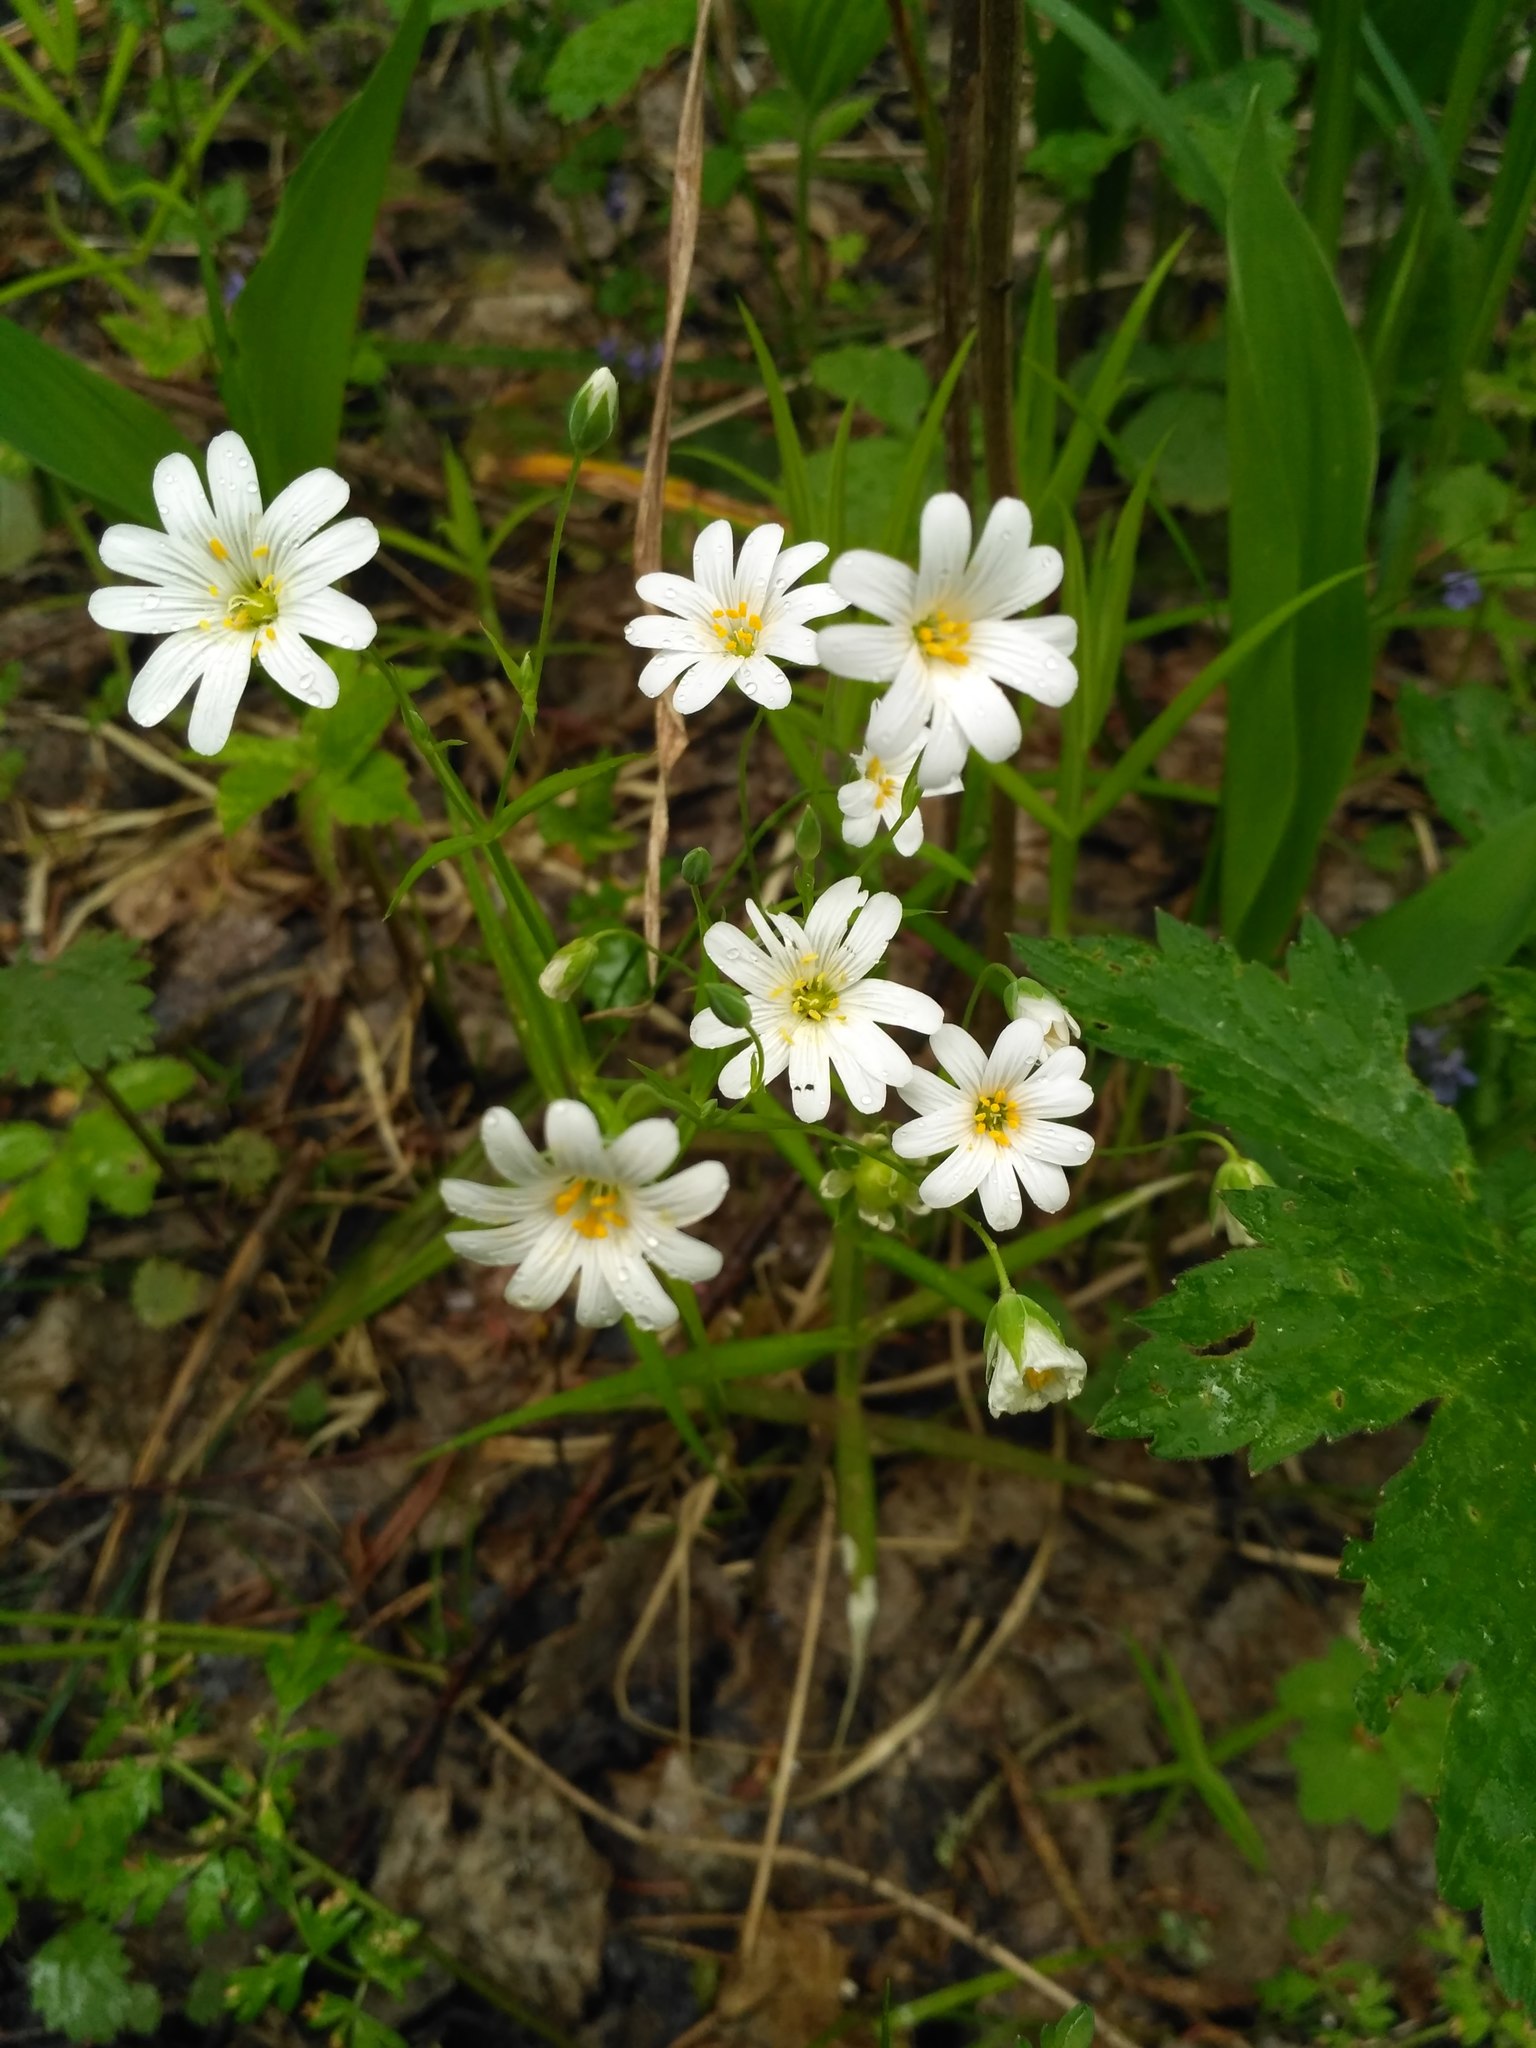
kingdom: Plantae
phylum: Tracheophyta
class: Magnoliopsida
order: Caryophyllales
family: Caryophyllaceae
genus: Rabelera
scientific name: Rabelera holostea
